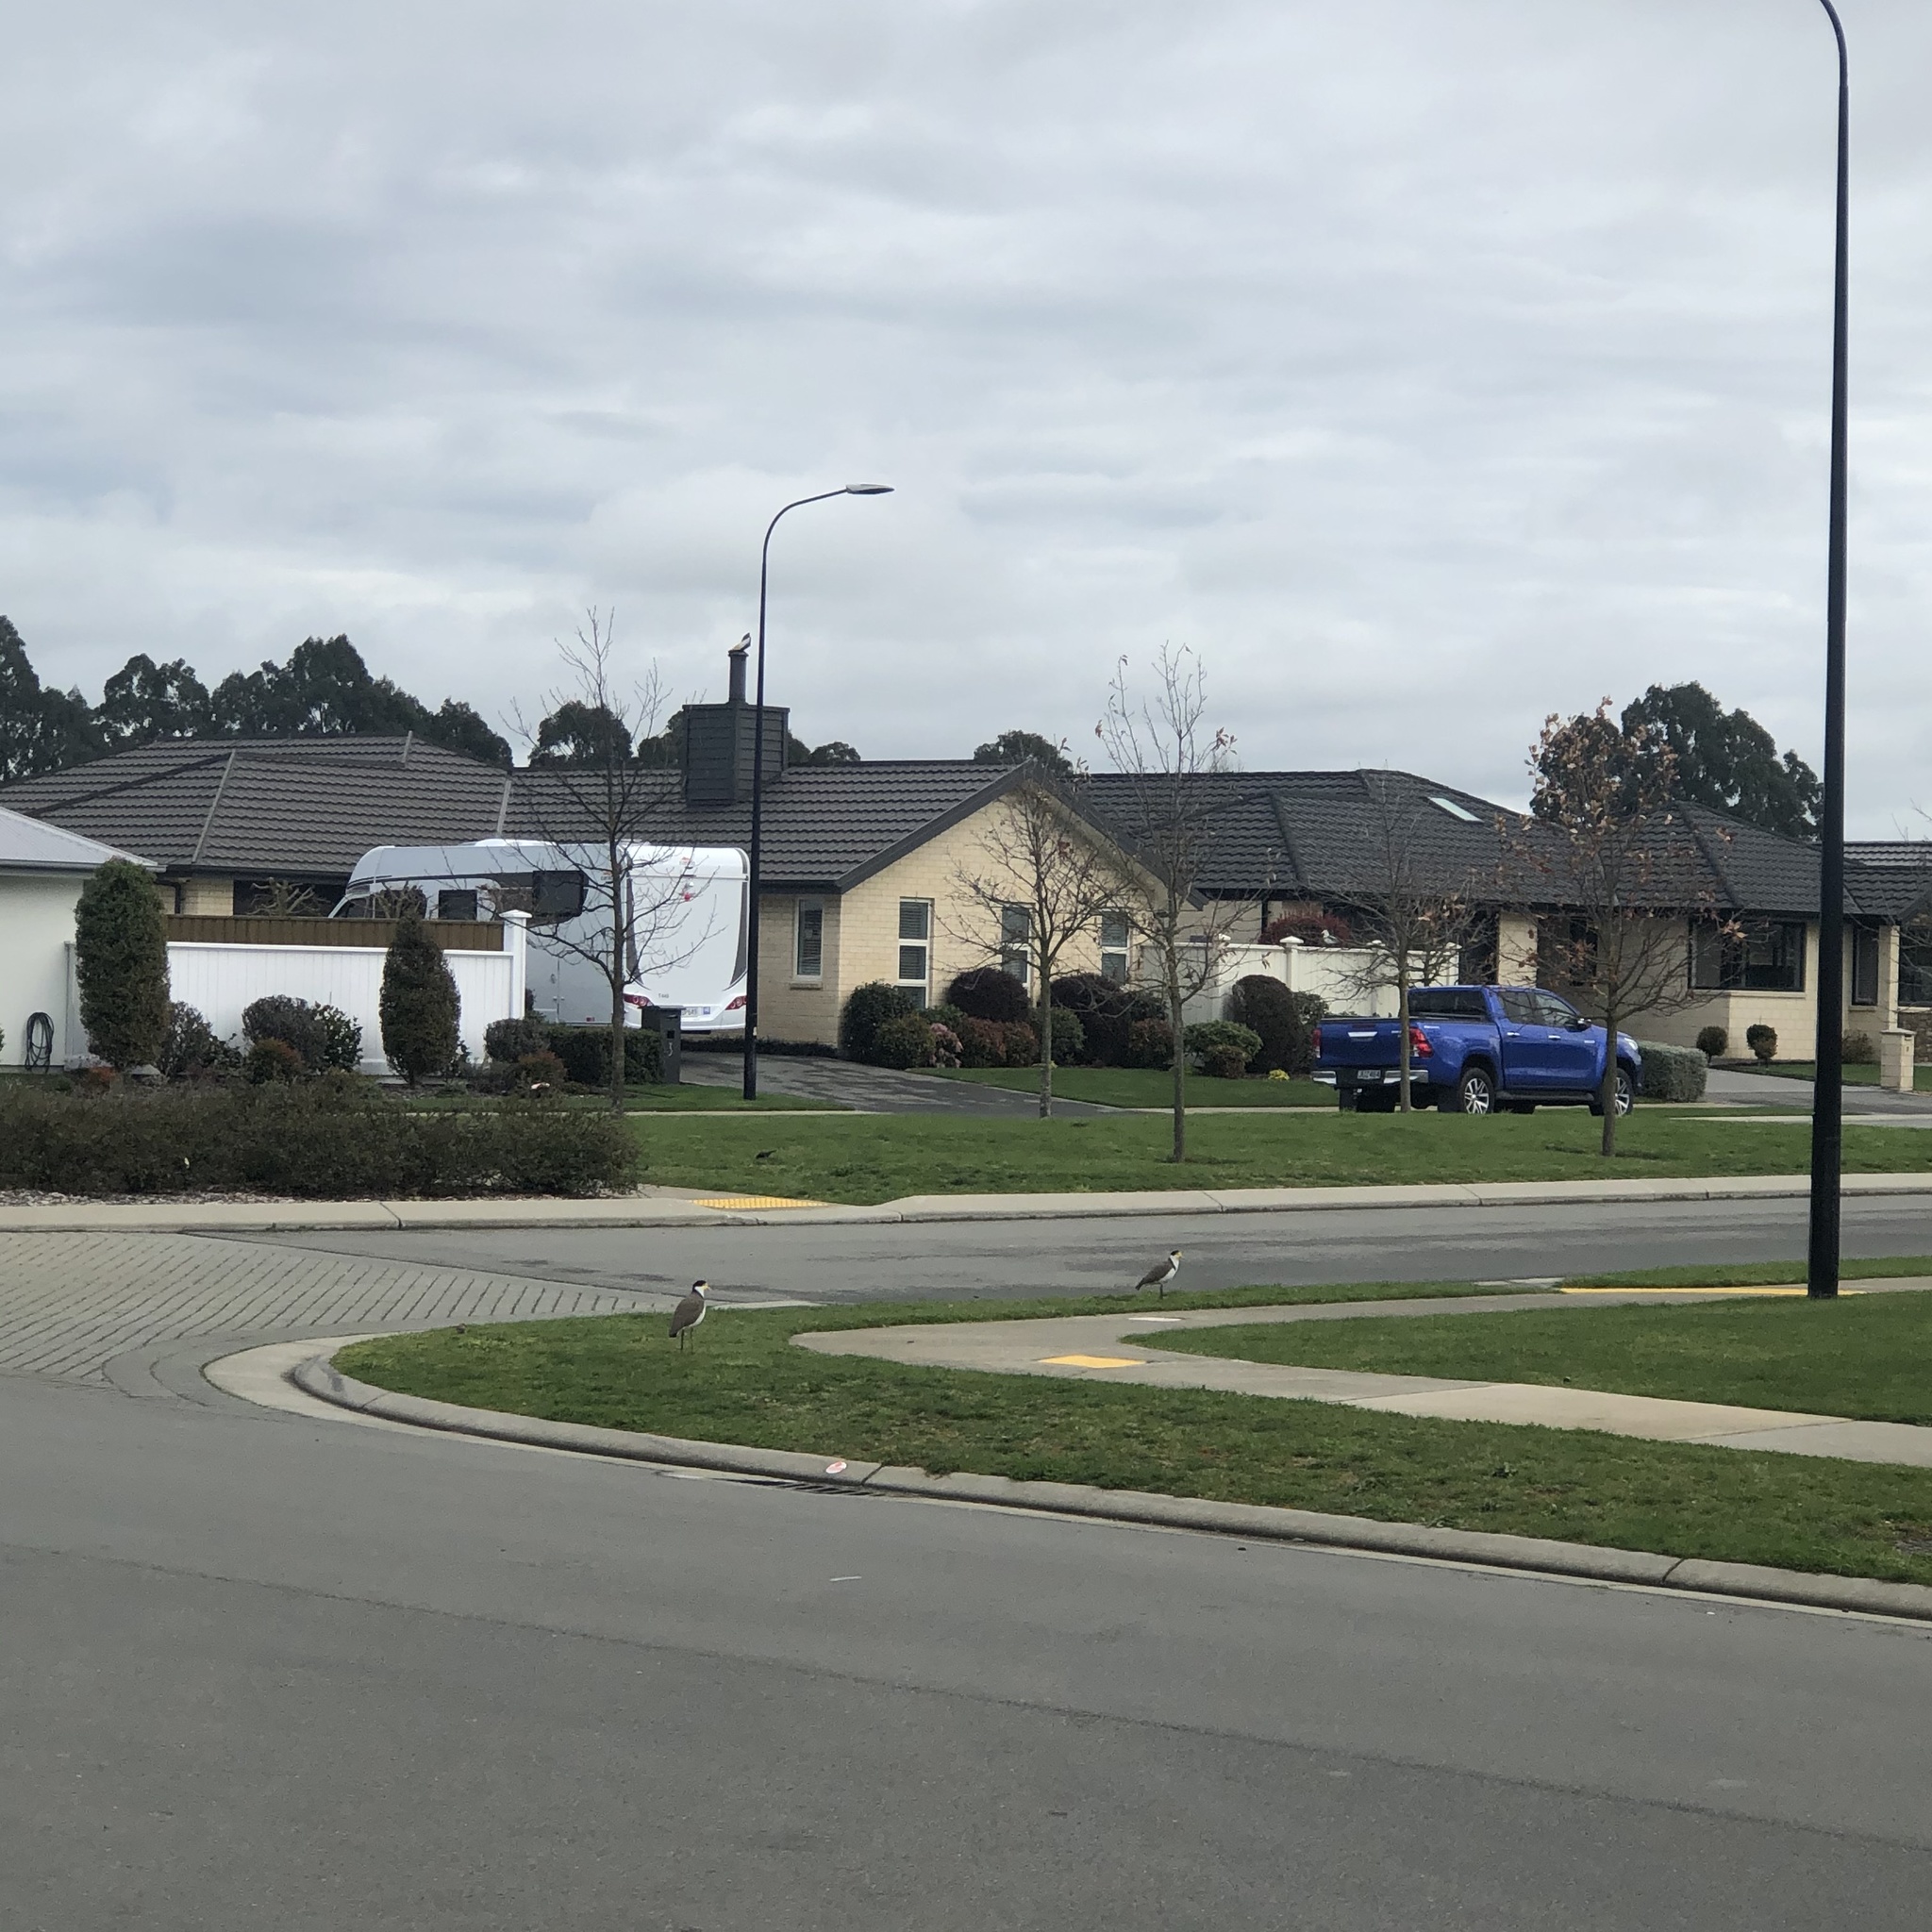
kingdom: Animalia
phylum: Chordata
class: Aves
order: Charadriiformes
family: Charadriidae
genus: Vanellus
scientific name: Vanellus miles
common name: Masked lapwing
